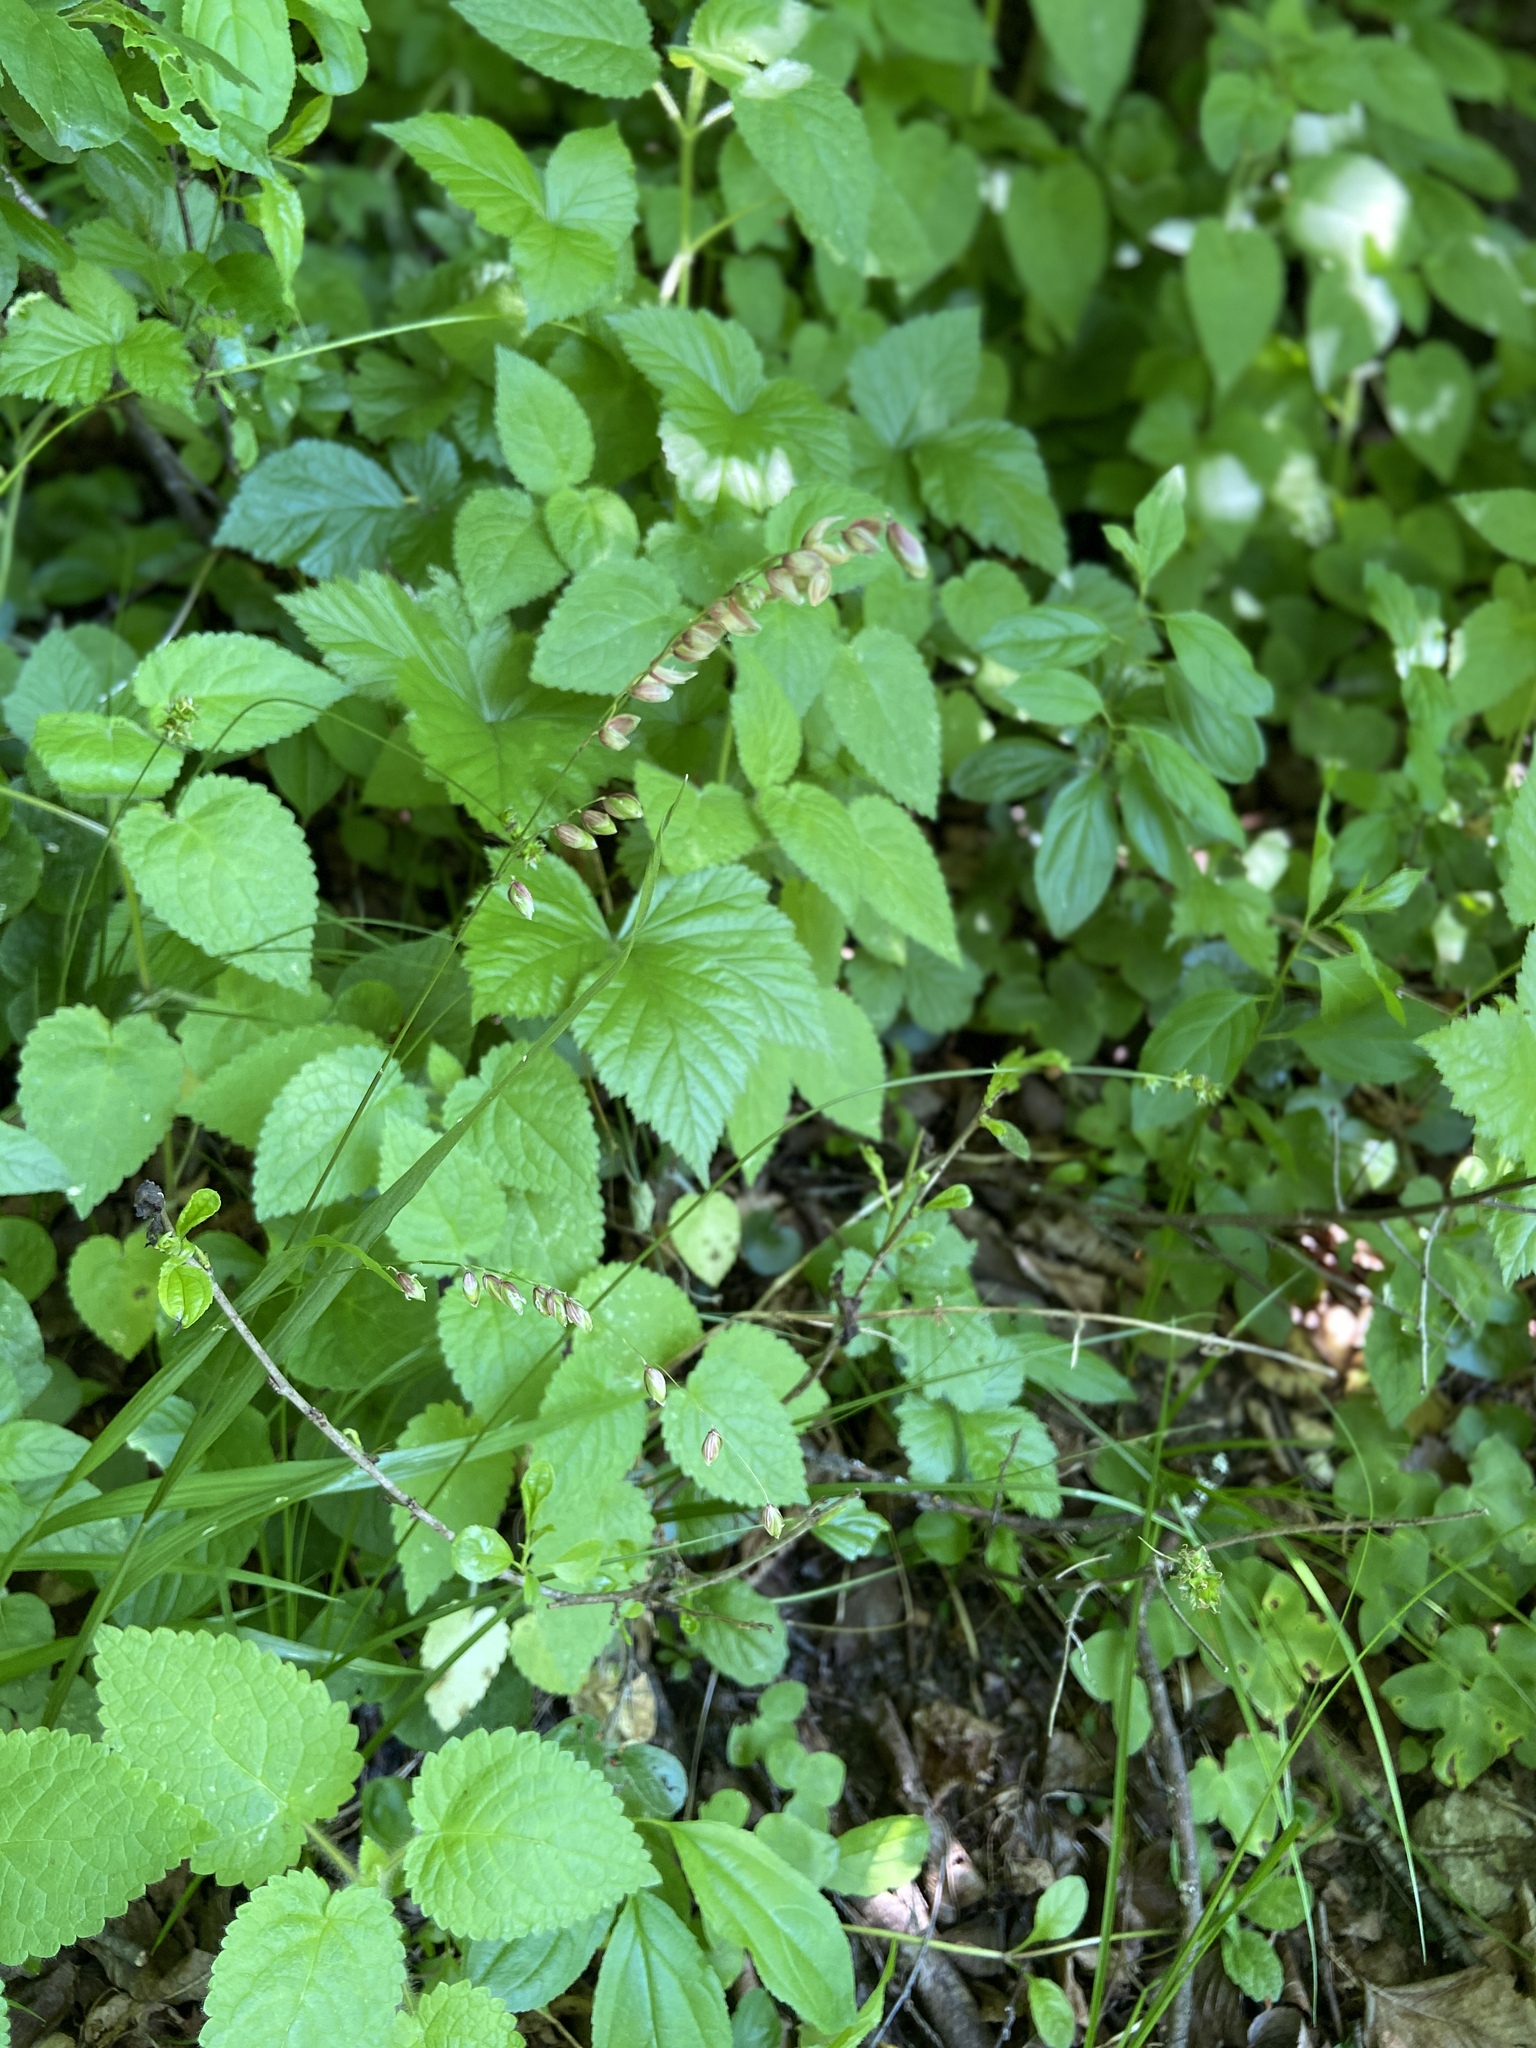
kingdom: Plantae
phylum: Tracheophyta
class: Liliopsida
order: Poales
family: Poaceae
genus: Melica
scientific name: Melica nutans
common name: Mountain melick
